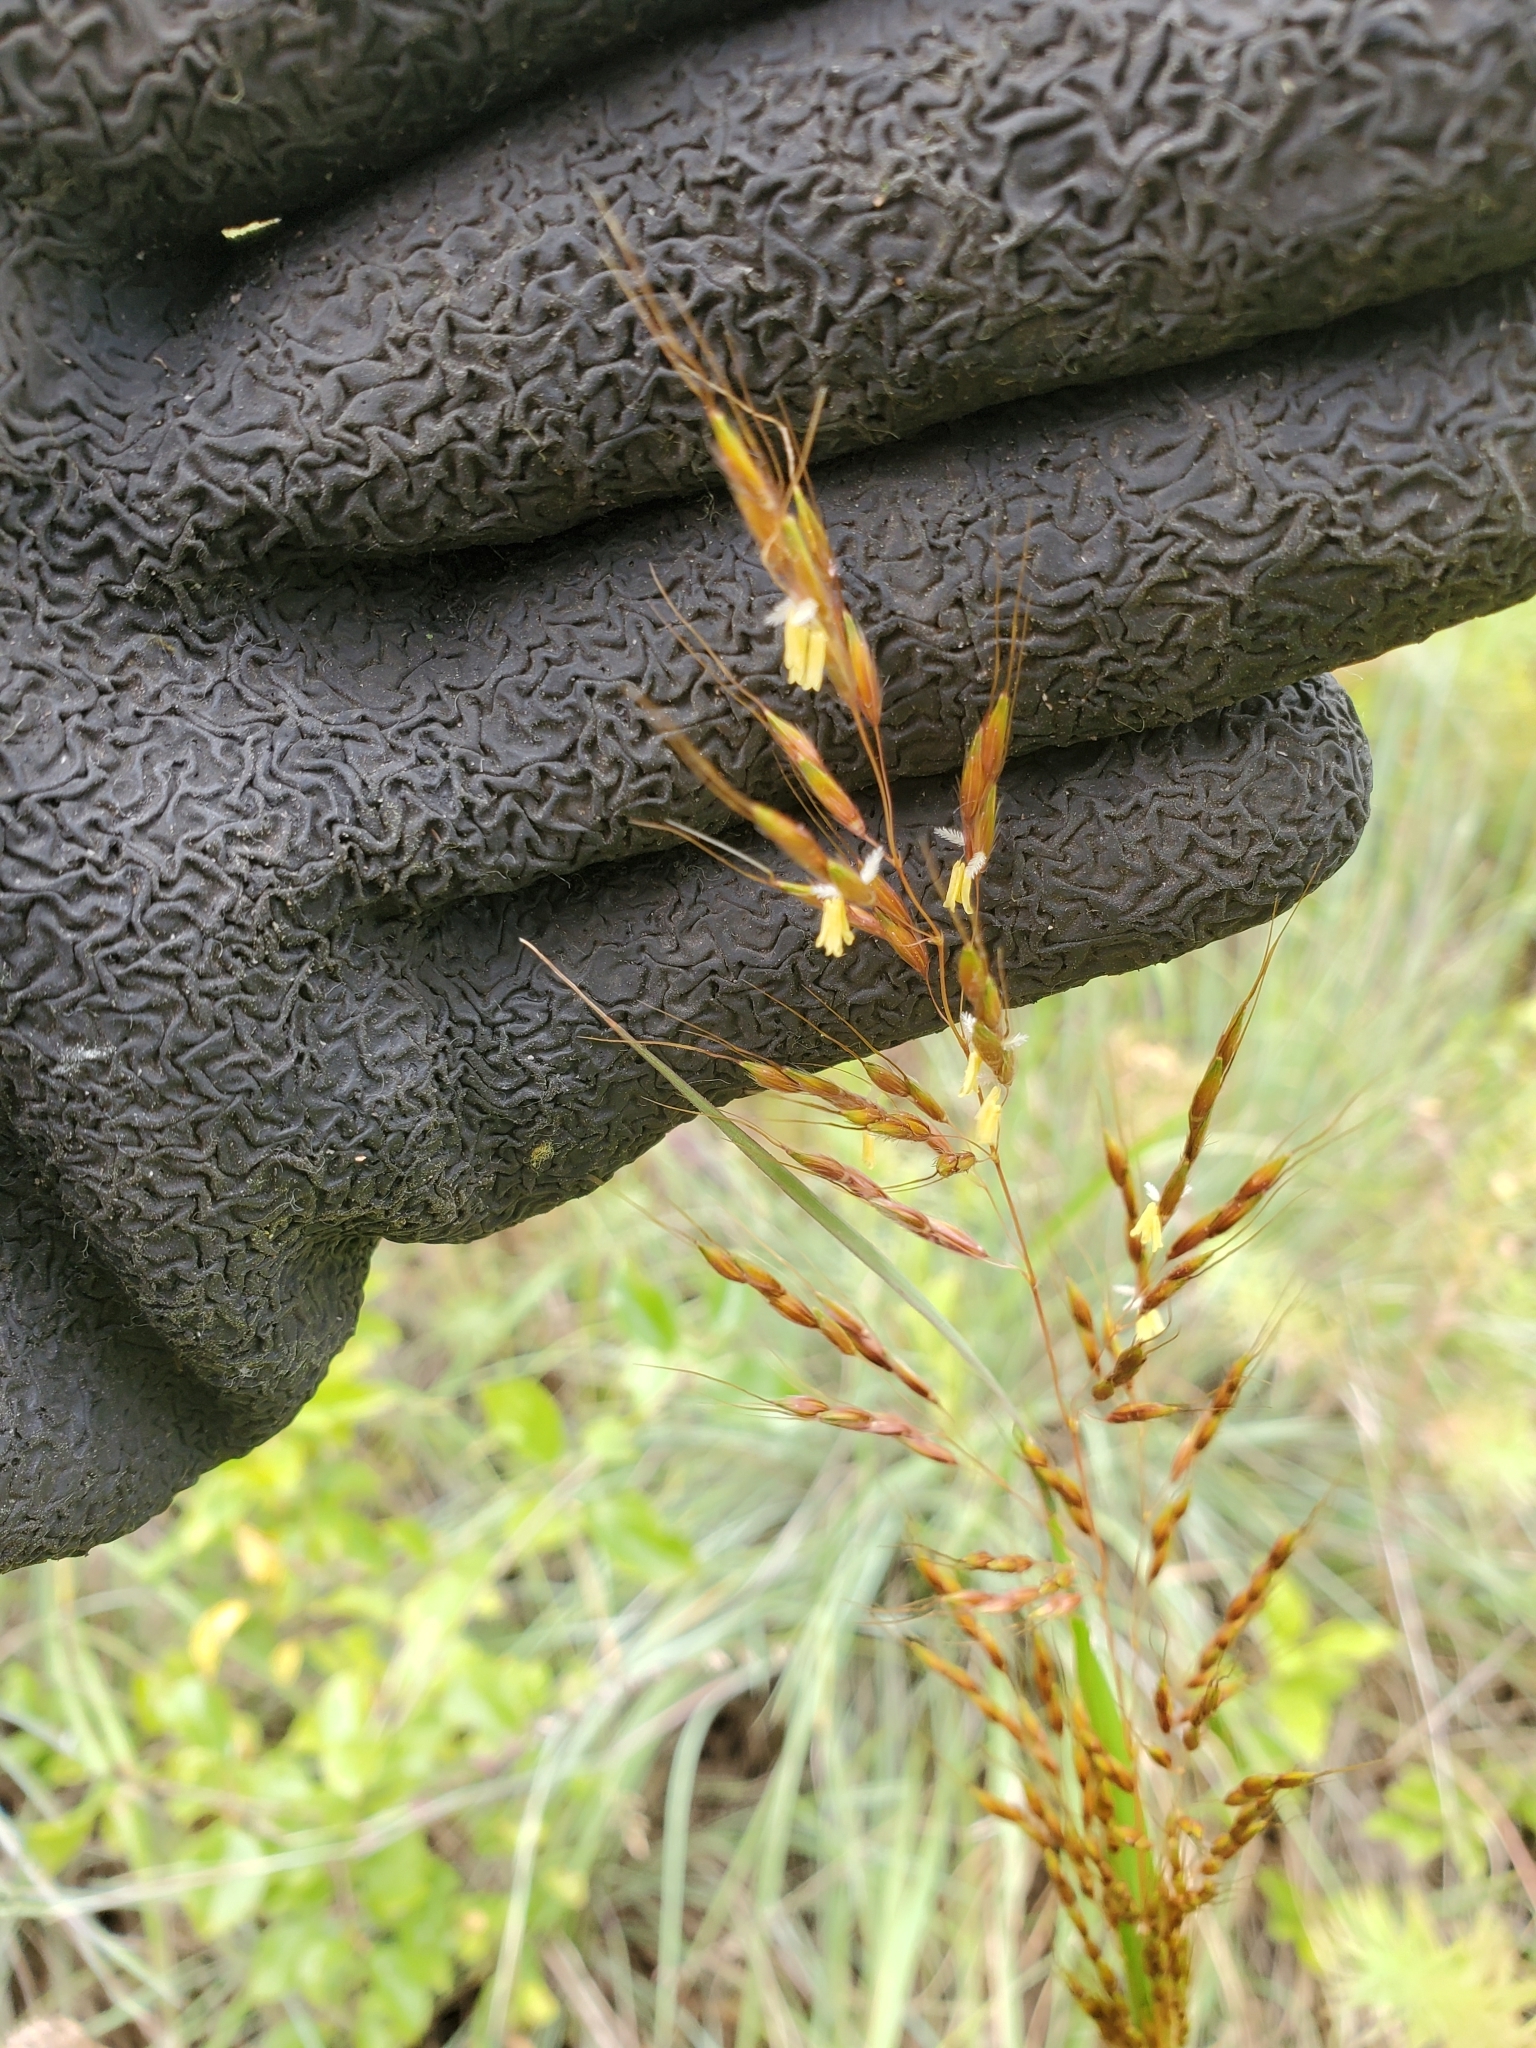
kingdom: Plantae
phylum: Tracheophyta
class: Liliopsida
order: Poales
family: Poaceae
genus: Sorghastrum
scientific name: Sorghastrum nutans
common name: Indian grass
